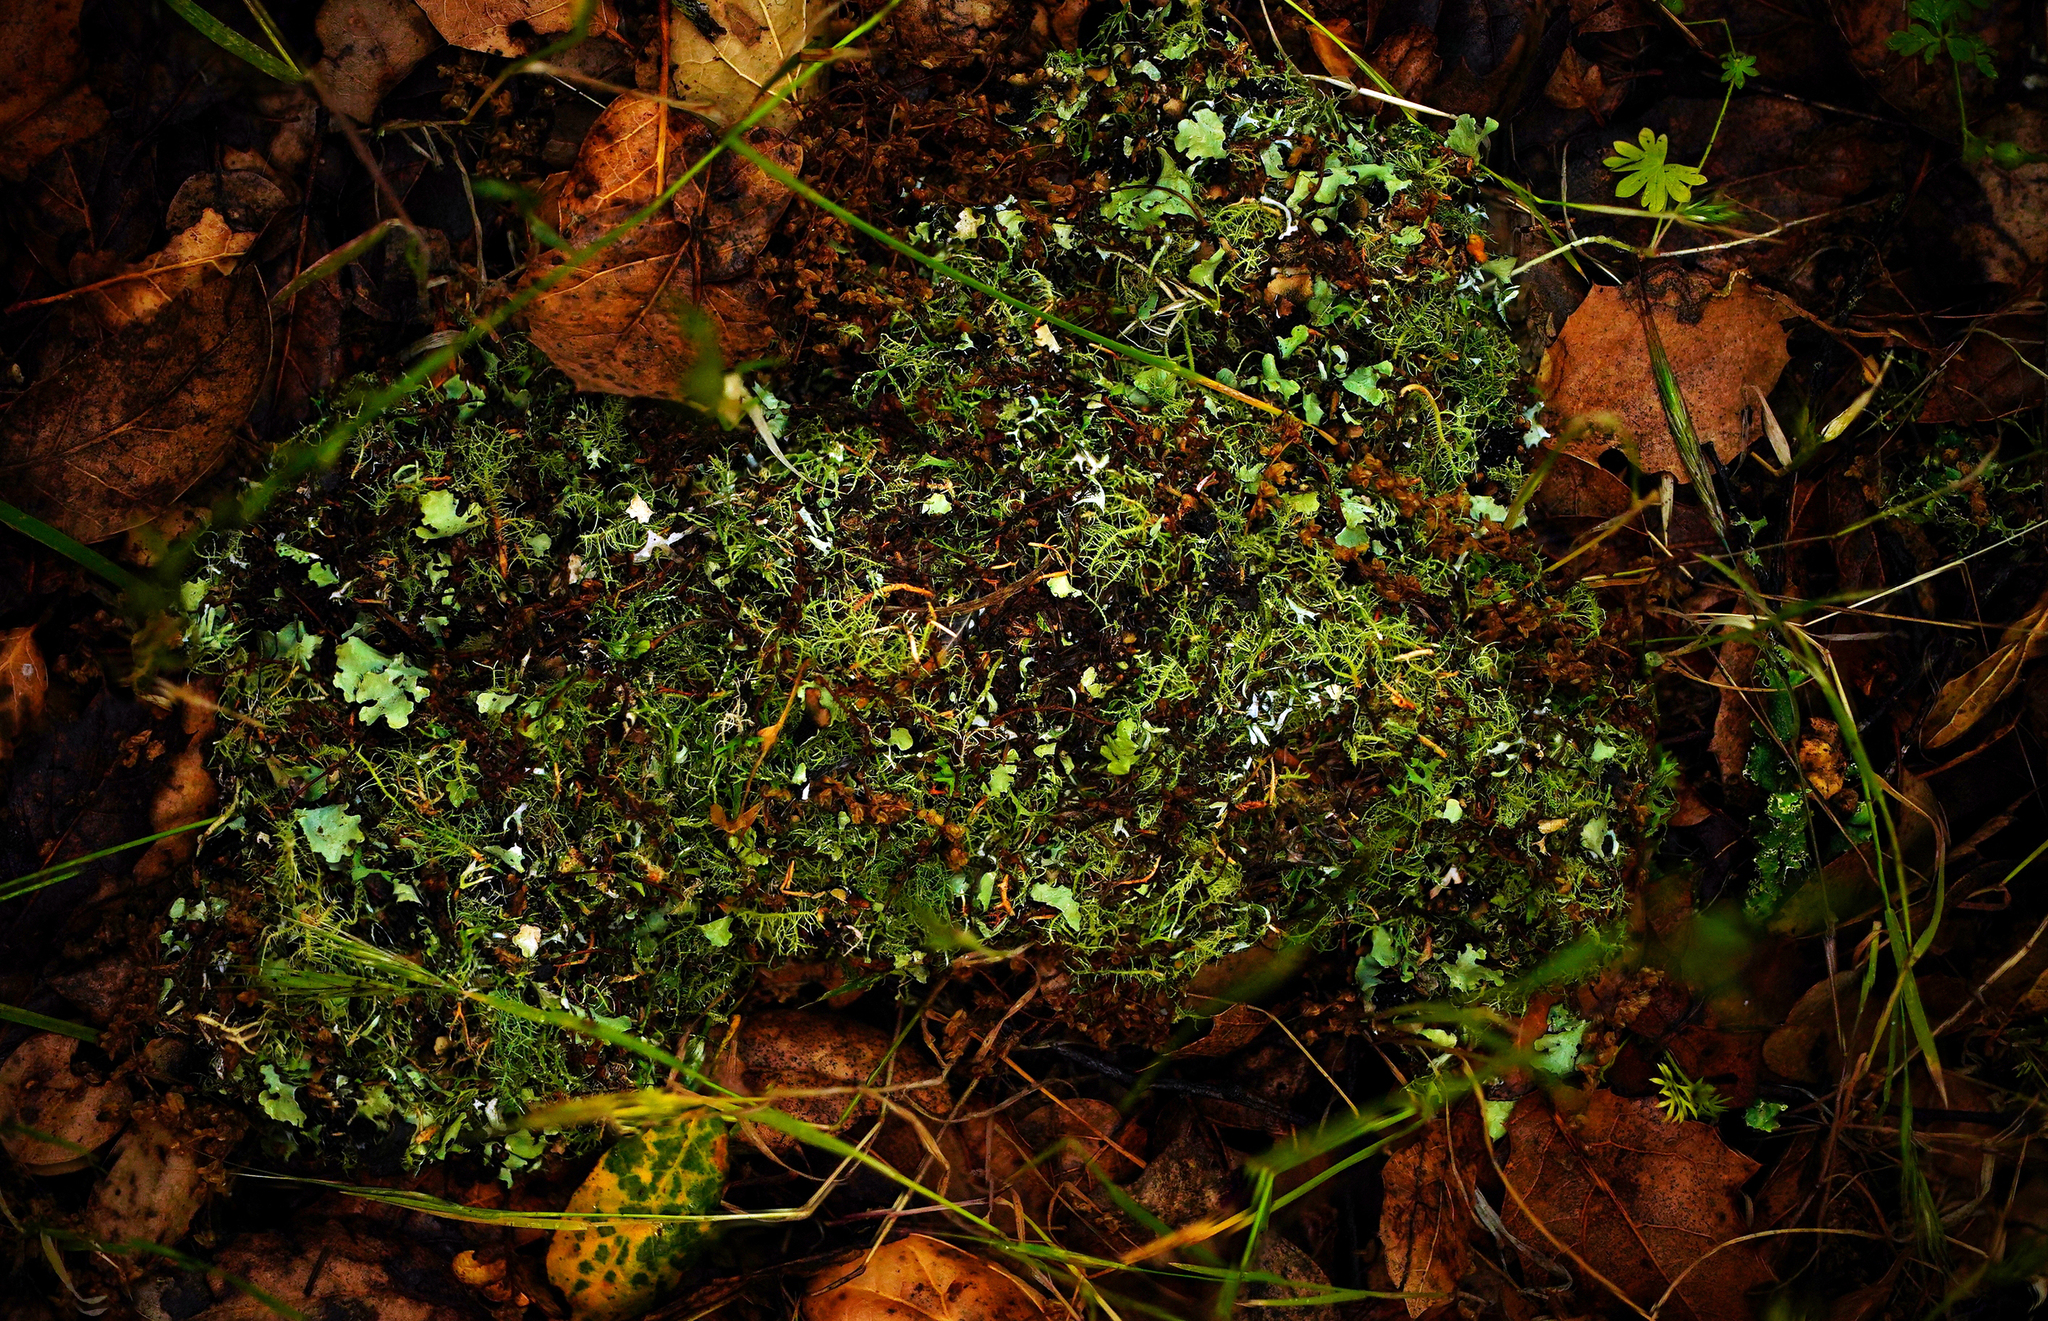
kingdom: Animalia
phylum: Chordata
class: Aves
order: Passeriformes
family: Aegithalidae
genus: Psaltriparus
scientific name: Psaltriparus minimus
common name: American bushtit
